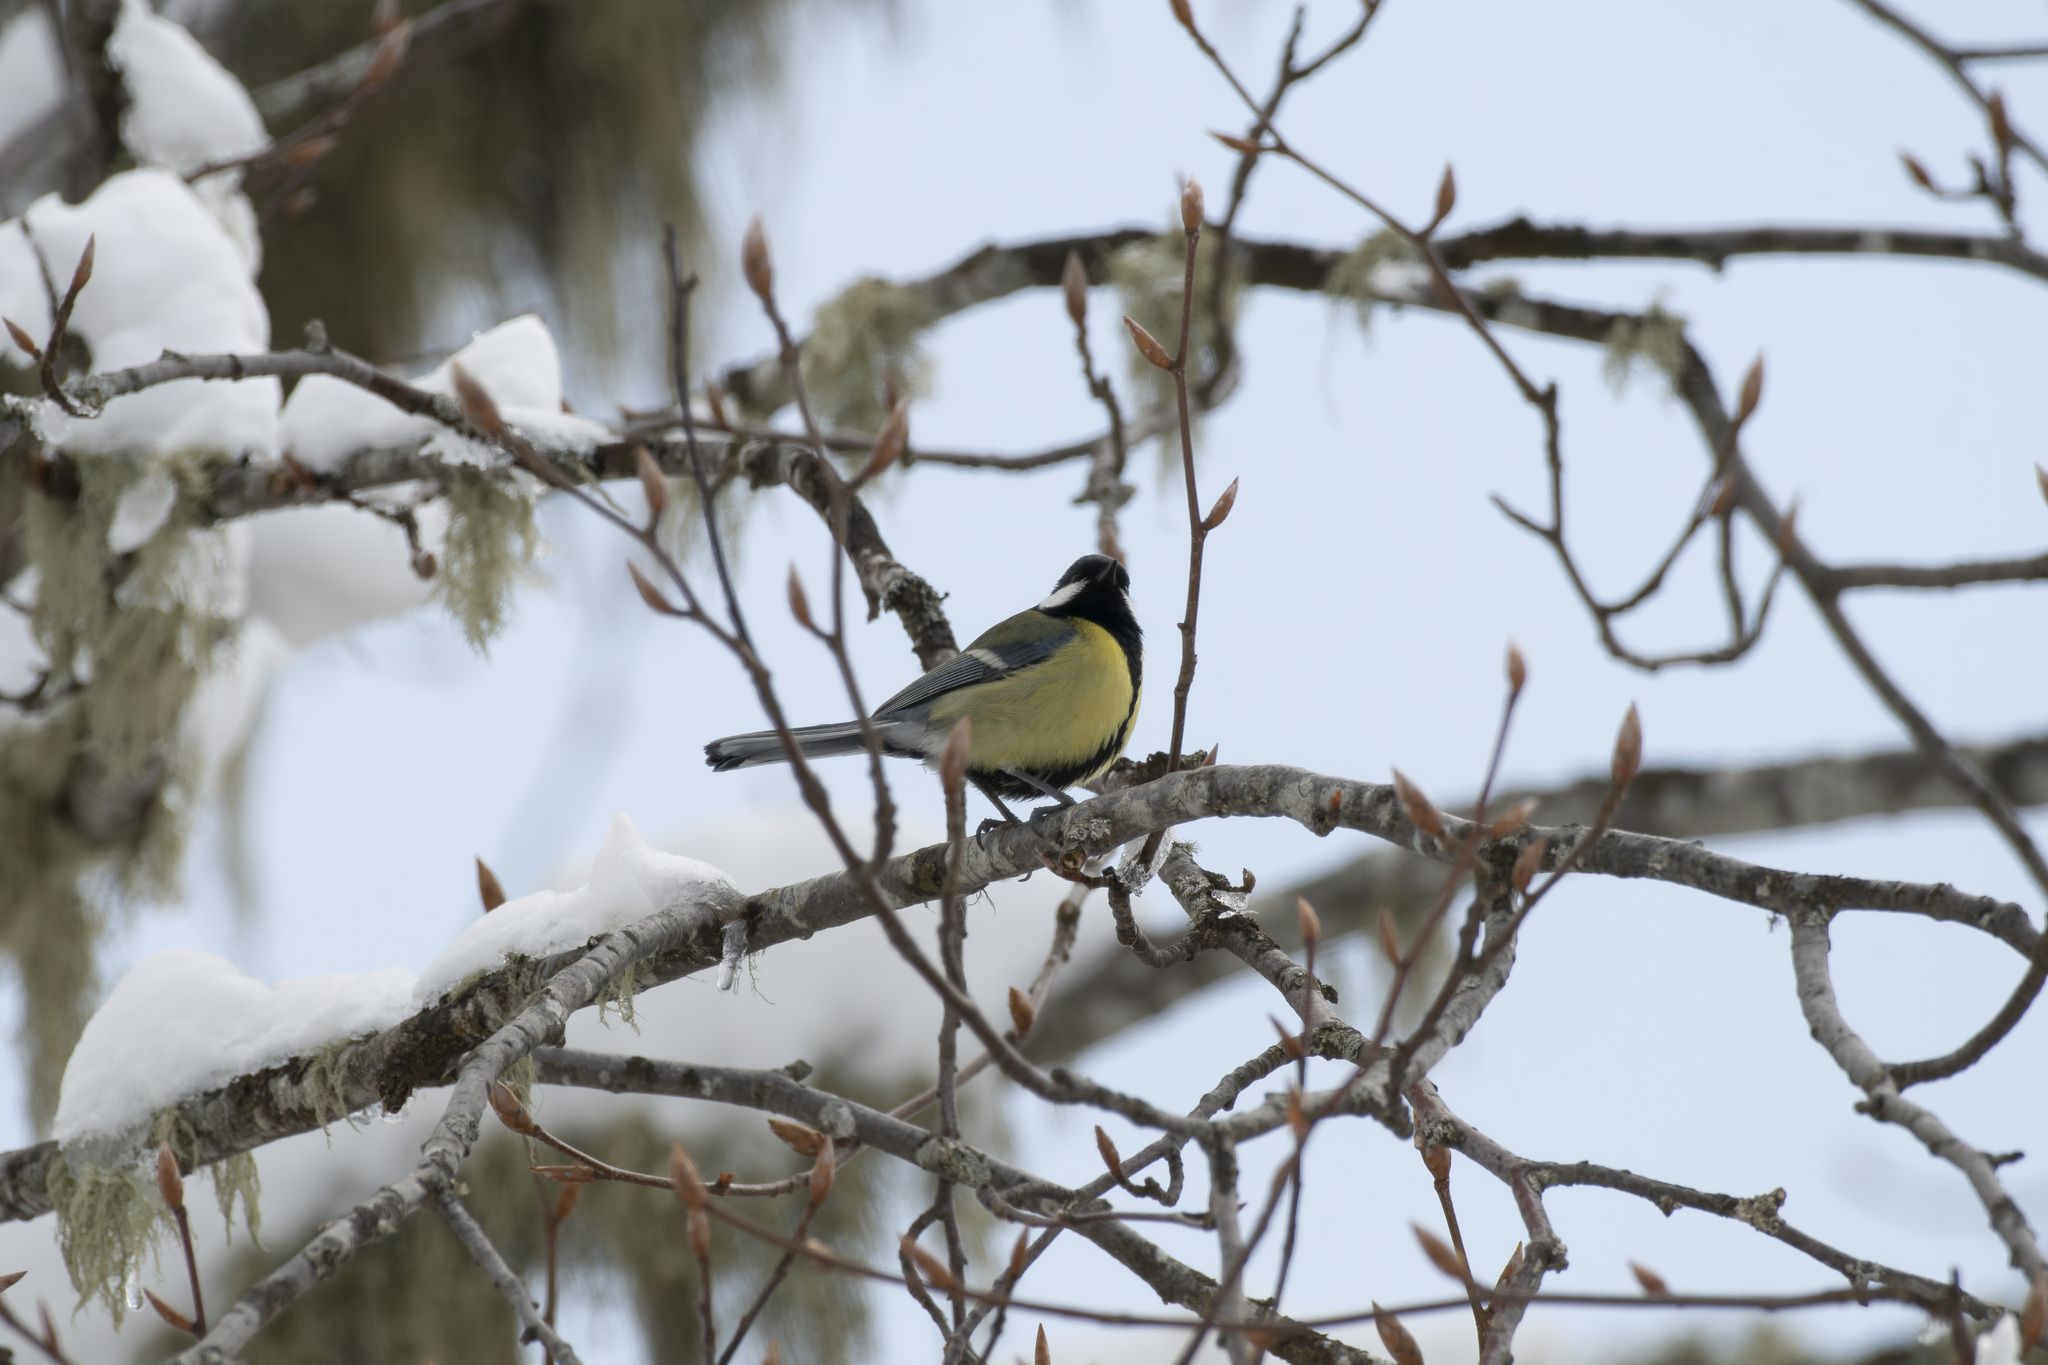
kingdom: Animalia
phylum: Chordata
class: Aves
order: Passeriformes
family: Paridae
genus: Parus
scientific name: Parus major
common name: Great tit
